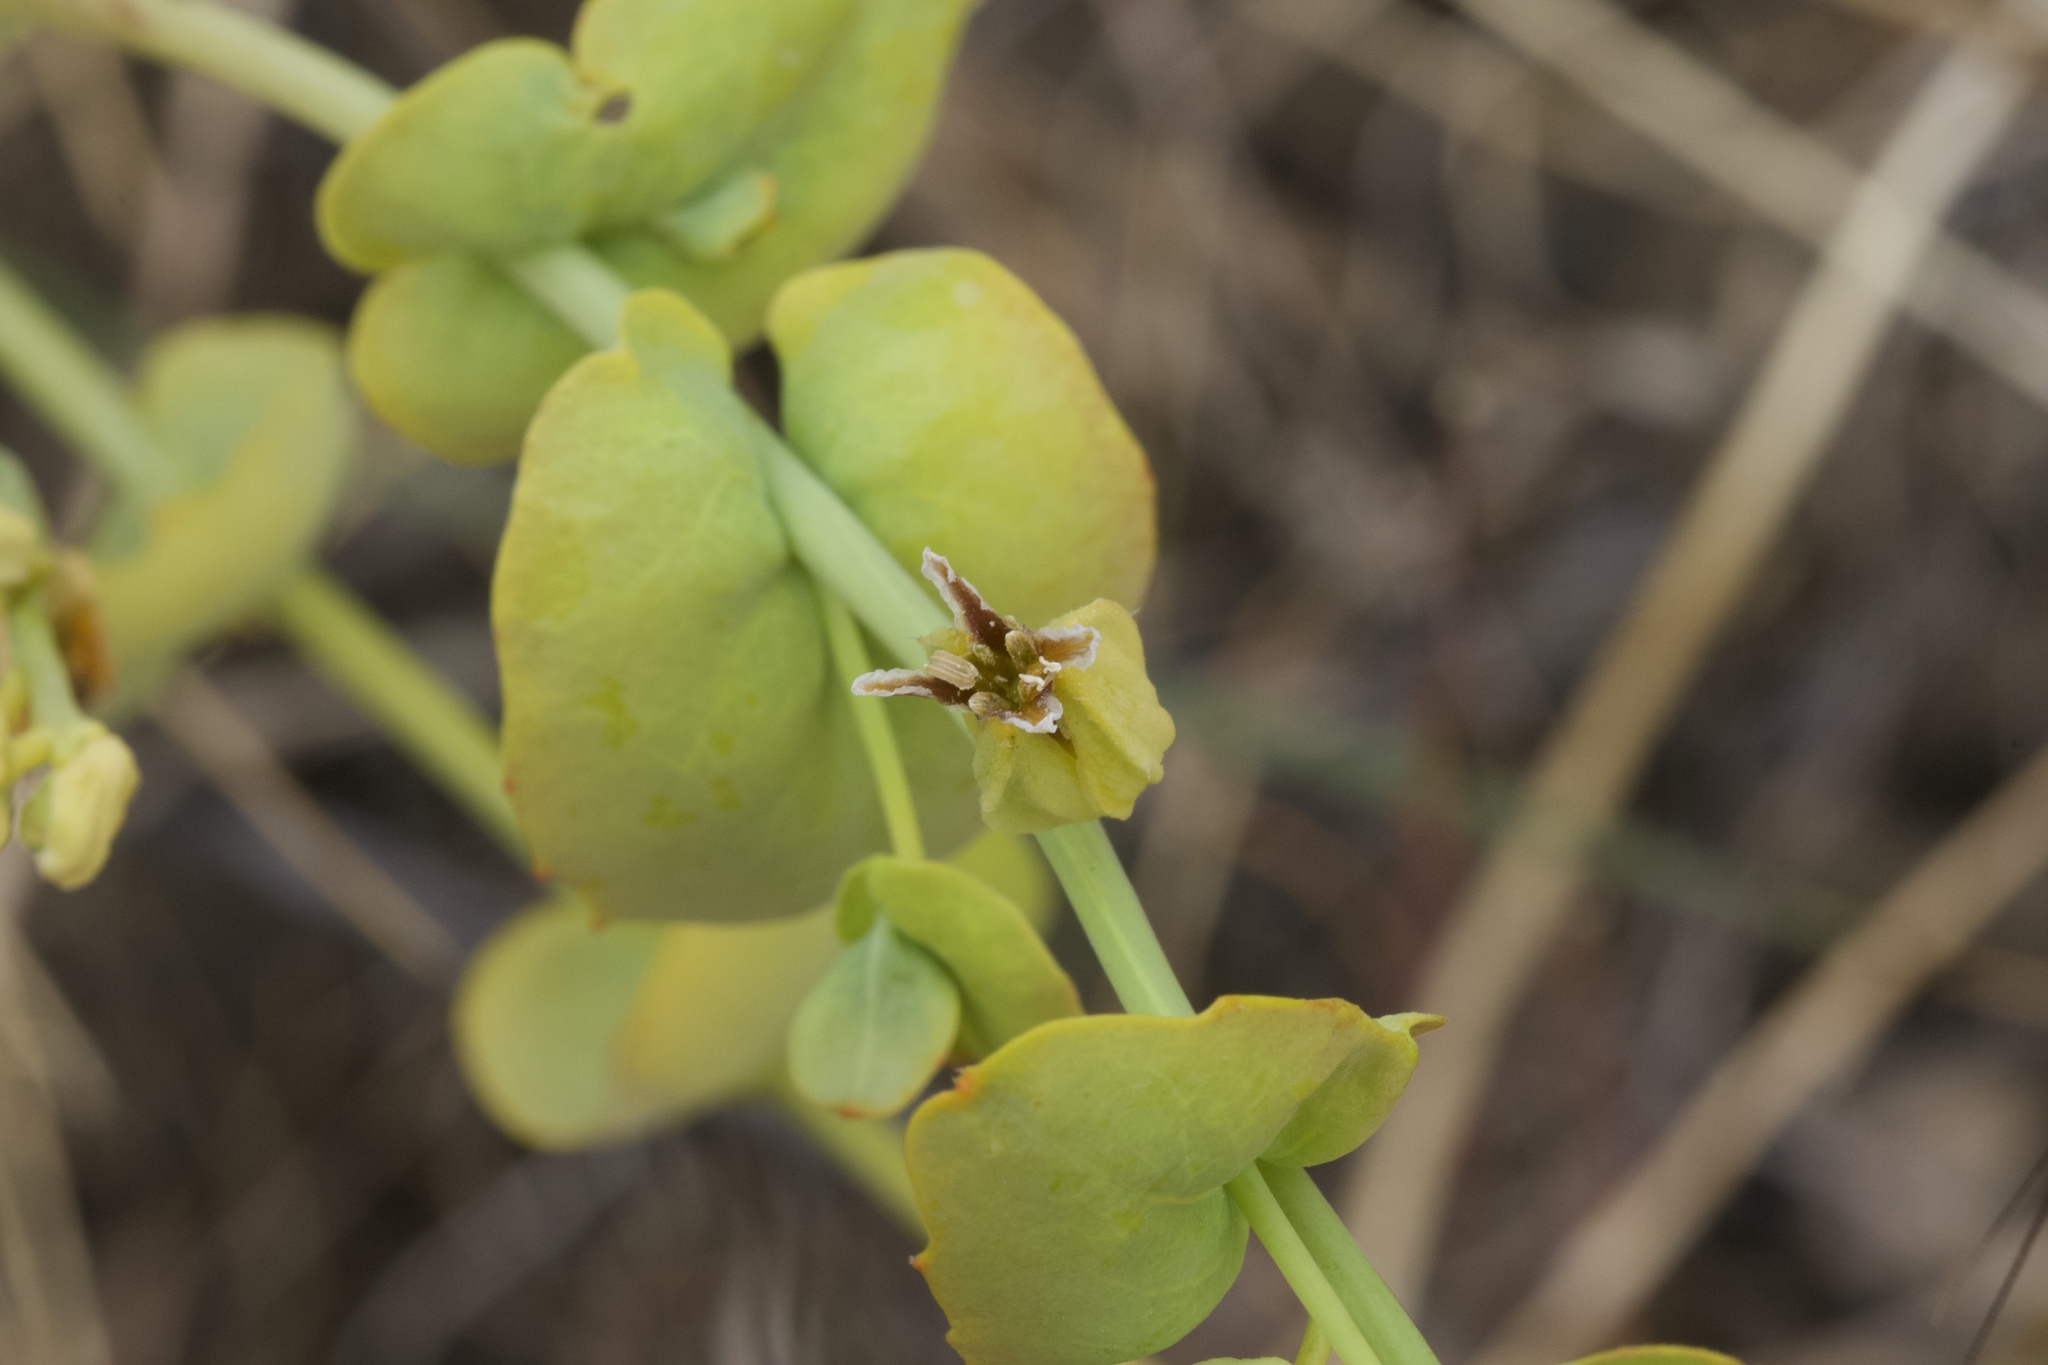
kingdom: Plantae
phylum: Tracheophyta
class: Magnoliopsida
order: Brassicales
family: Brassicaceae
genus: Streptanthus
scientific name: Streptanthus anomalus
